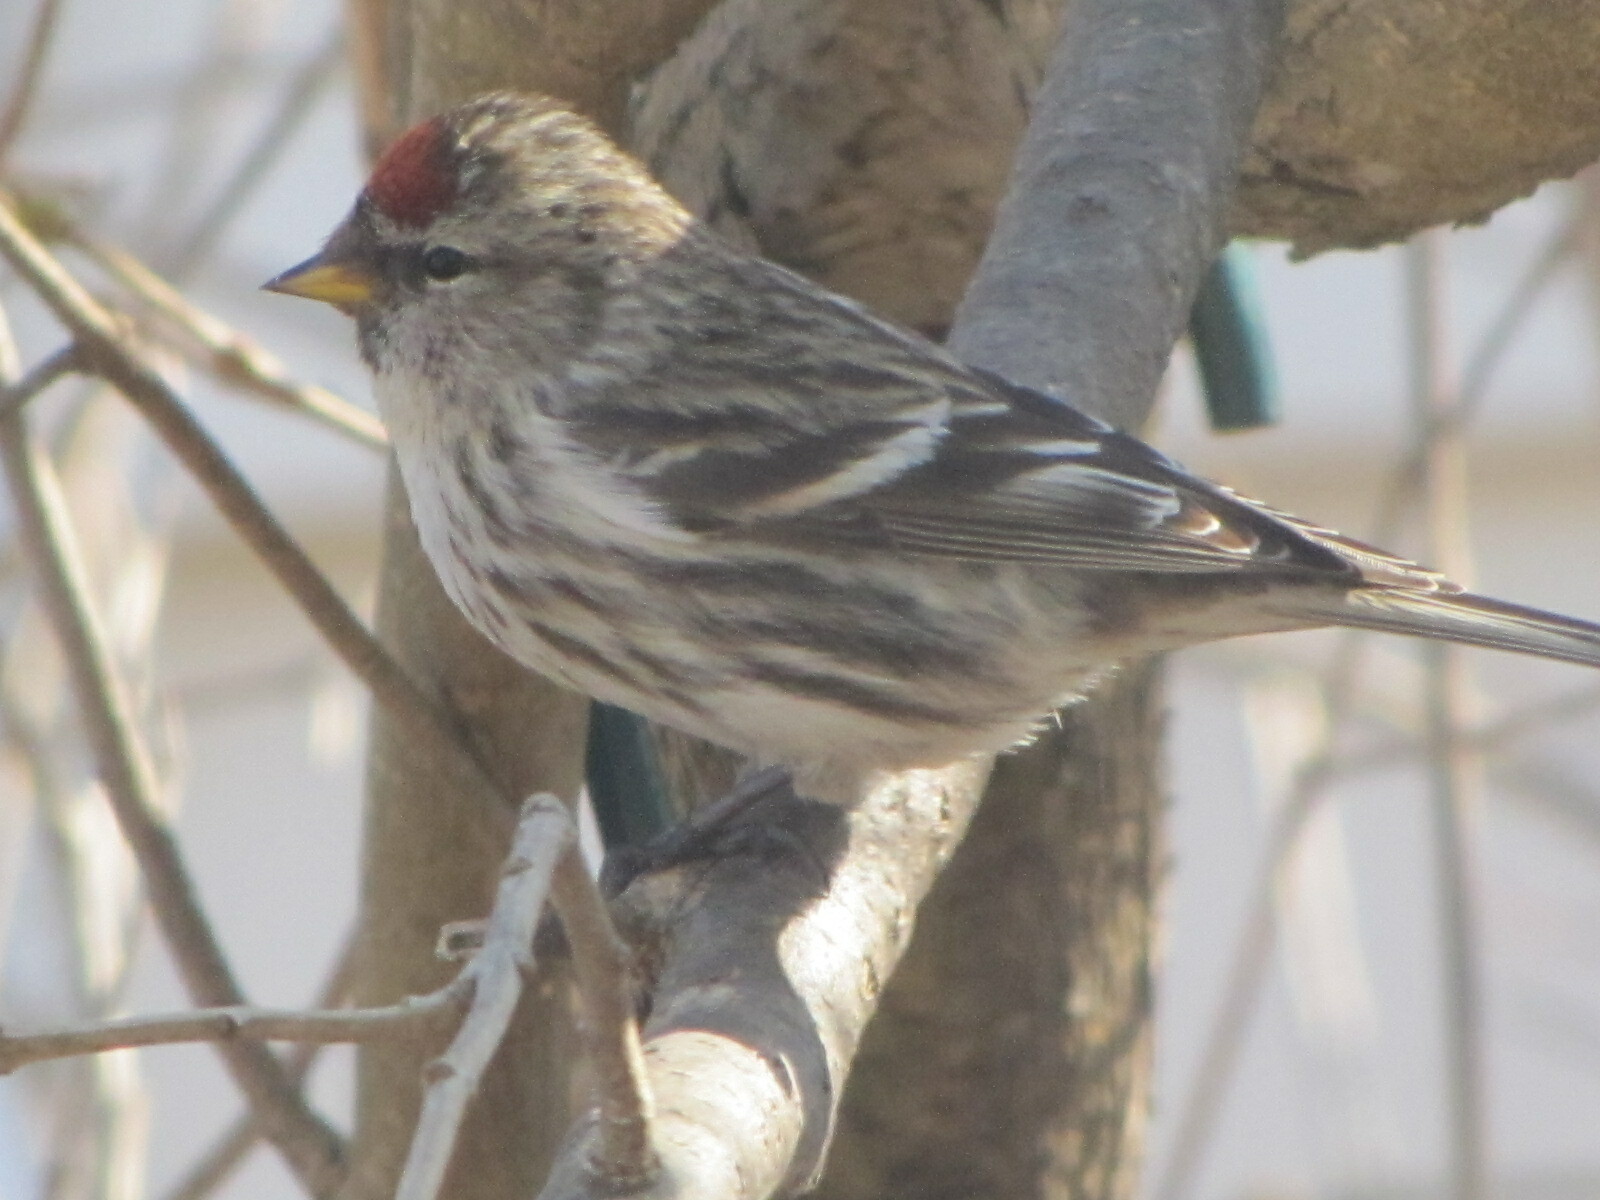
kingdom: Animalia
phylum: Chordata
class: Aves
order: Passeriformes
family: Fringillidae
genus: Acanthis
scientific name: Acanthis flammea
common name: Common redpoll
